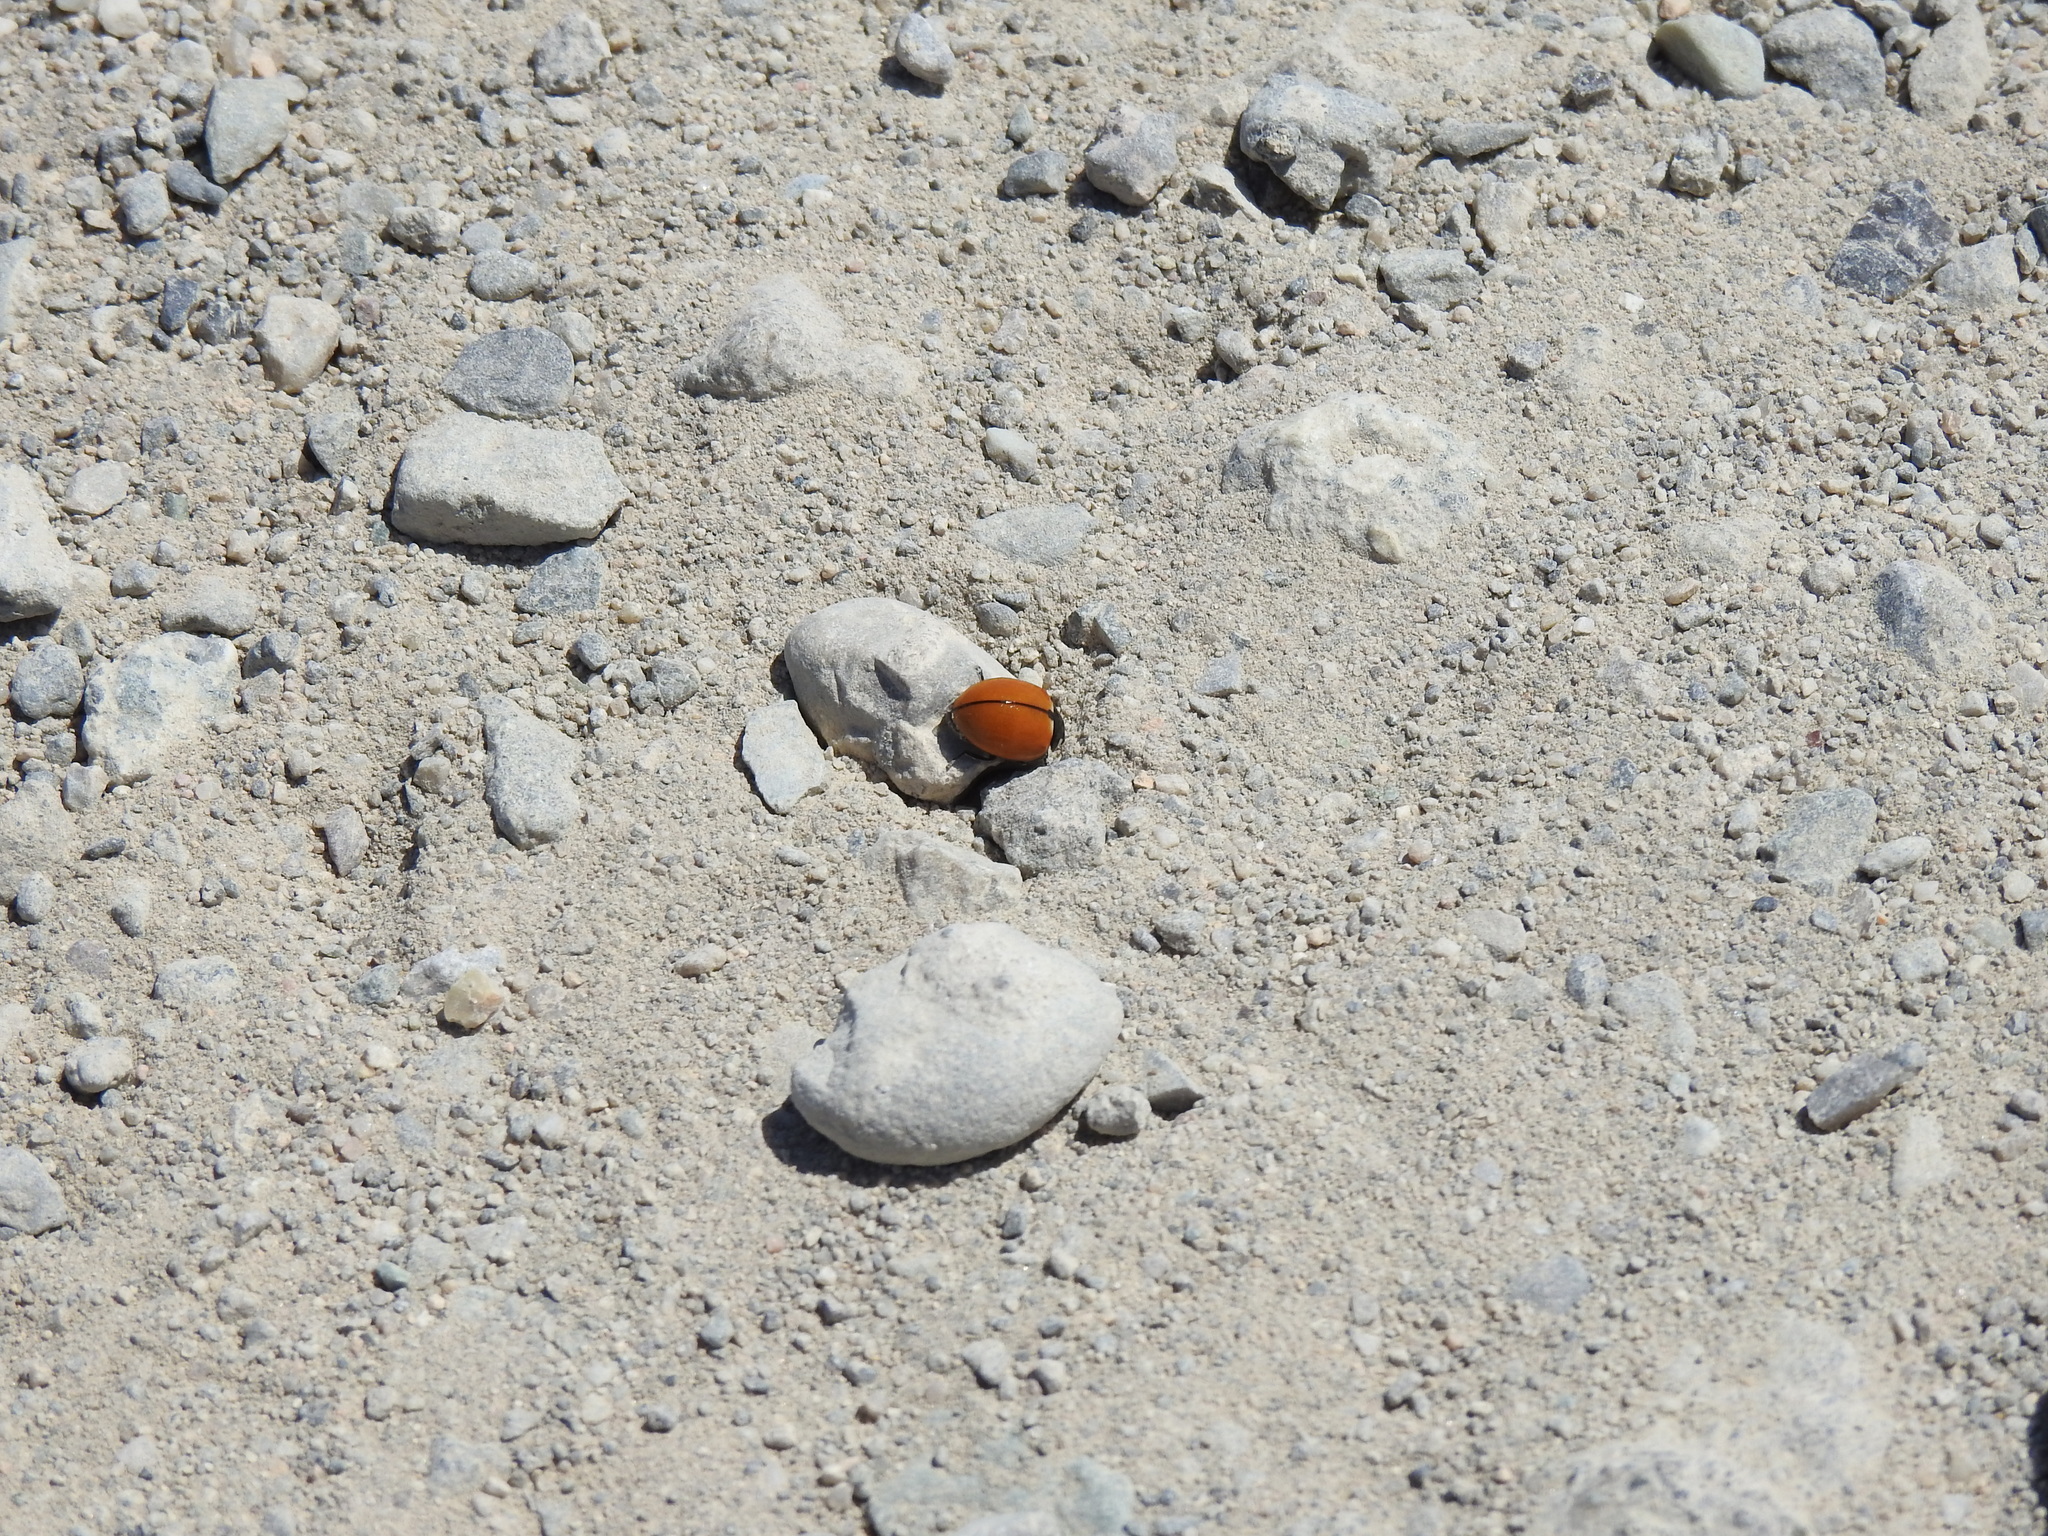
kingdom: Animalia
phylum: Arthropoda
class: Insecta
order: Coleoptera
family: Coccinellidae
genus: Coccinella
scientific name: Coccinella californica
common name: Lady beetle
